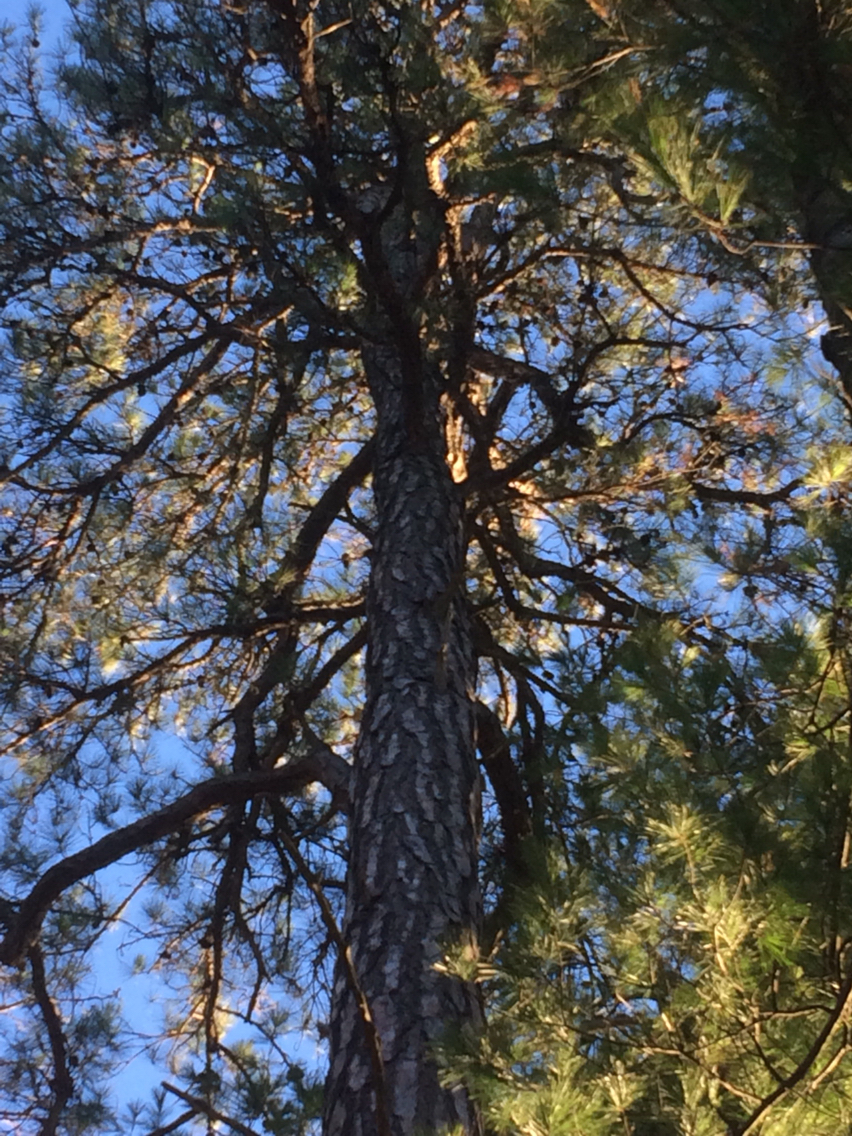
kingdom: Plantae
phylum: Tracheophyta
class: Pinopsida
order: Pinales
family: Pinaceae
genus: Pinus
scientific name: Pinus rigida
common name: Pitch pine
